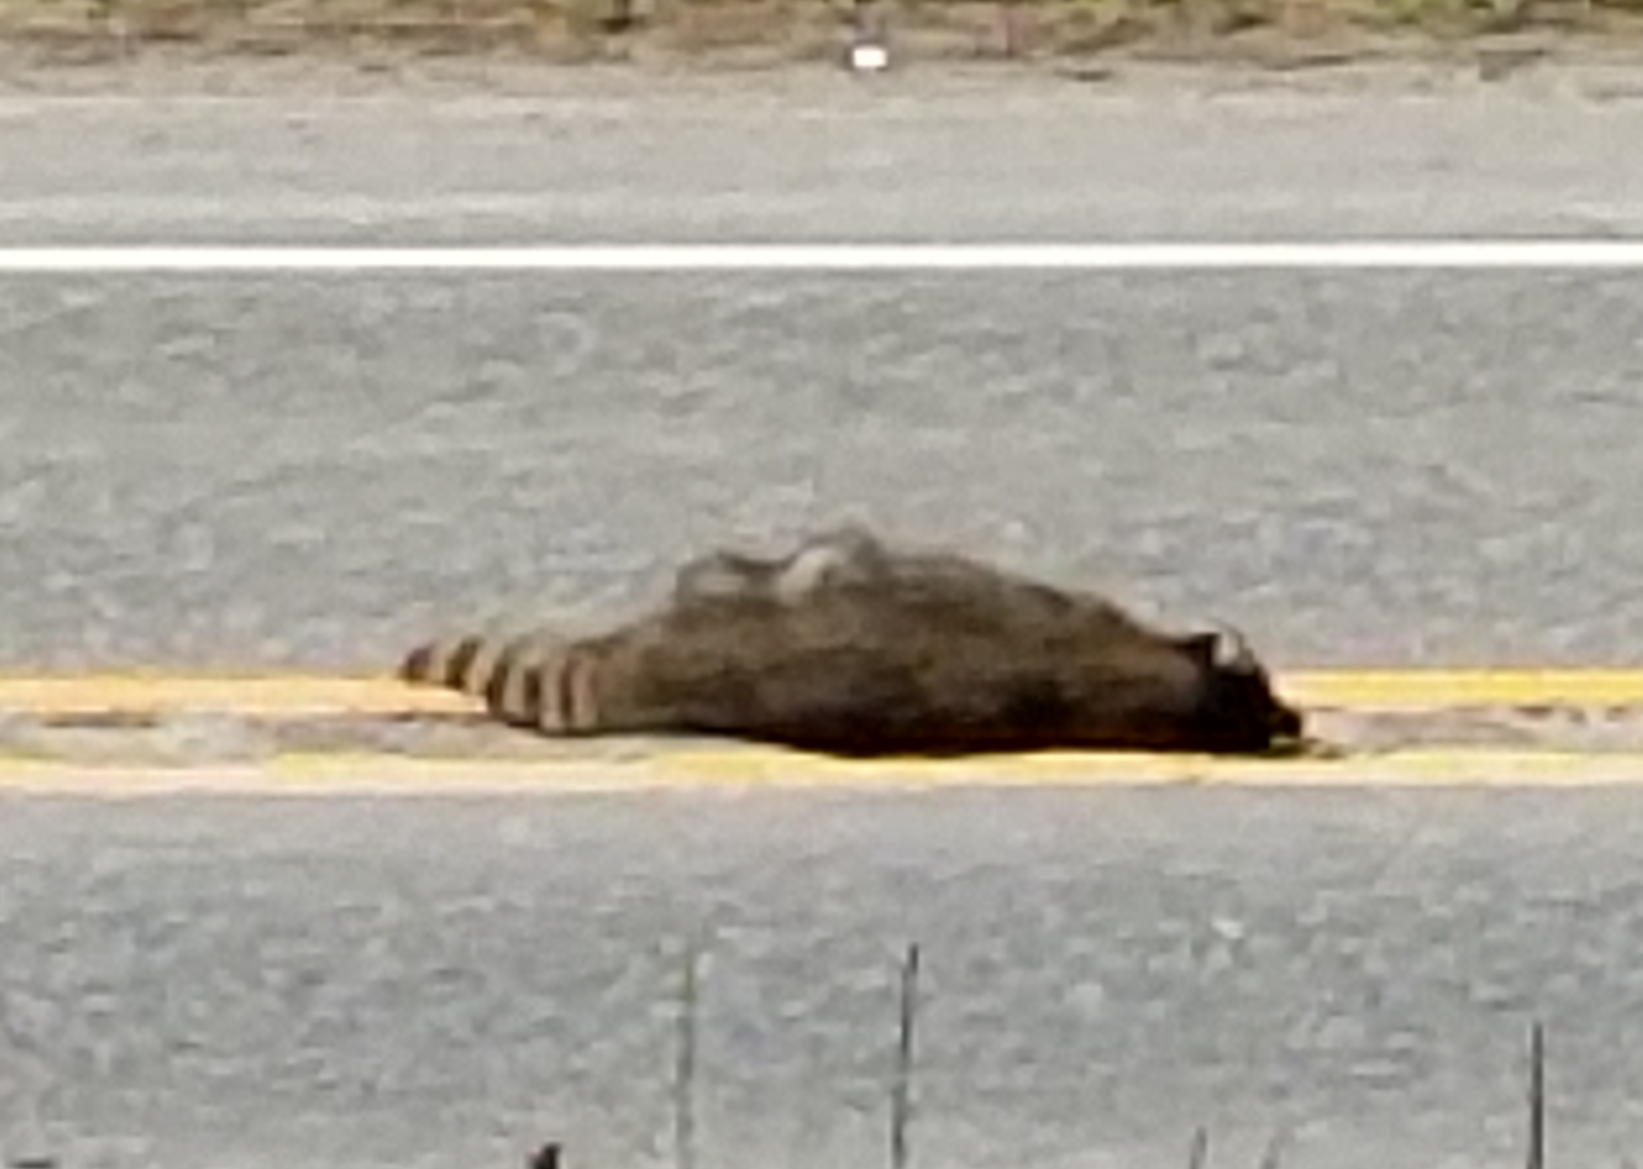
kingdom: Animalia
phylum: Chordata
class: Mammalia
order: Carnivora
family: Procyonidae
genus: Procyon
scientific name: Procyon lotor
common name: Raccoon
